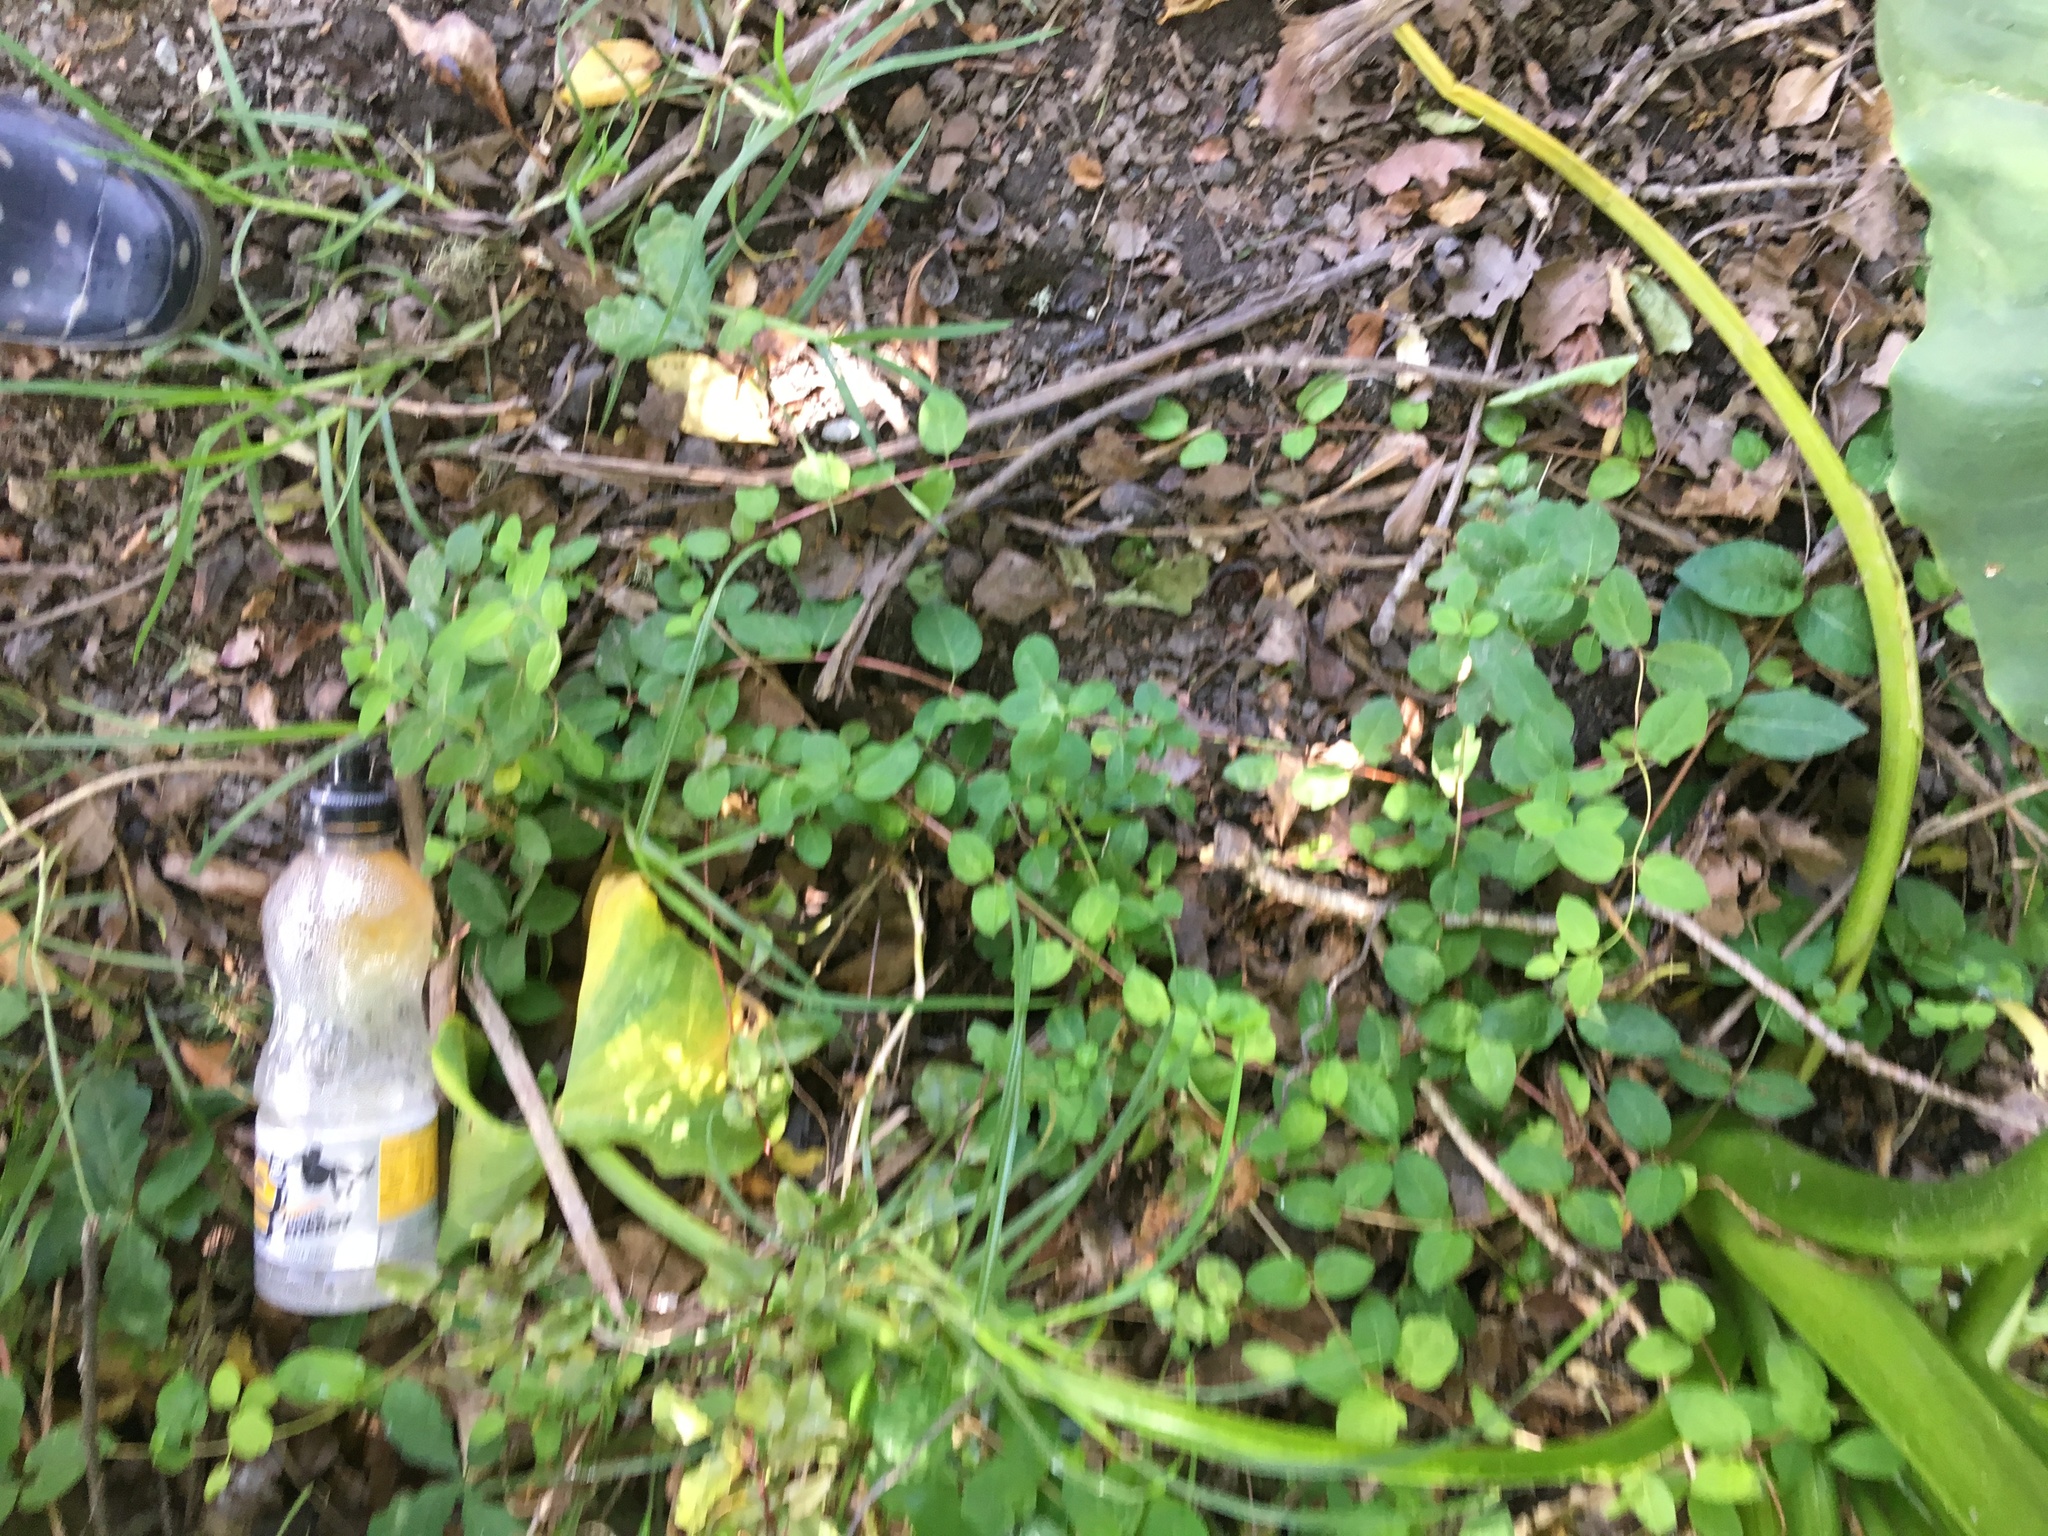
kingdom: Plantae
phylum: Tracheophyta
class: Magnoliopsida
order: Dipsacales
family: Caprifoliaceae
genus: Lonicera
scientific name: Lonicera japonica
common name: Japanese honeysuckle
